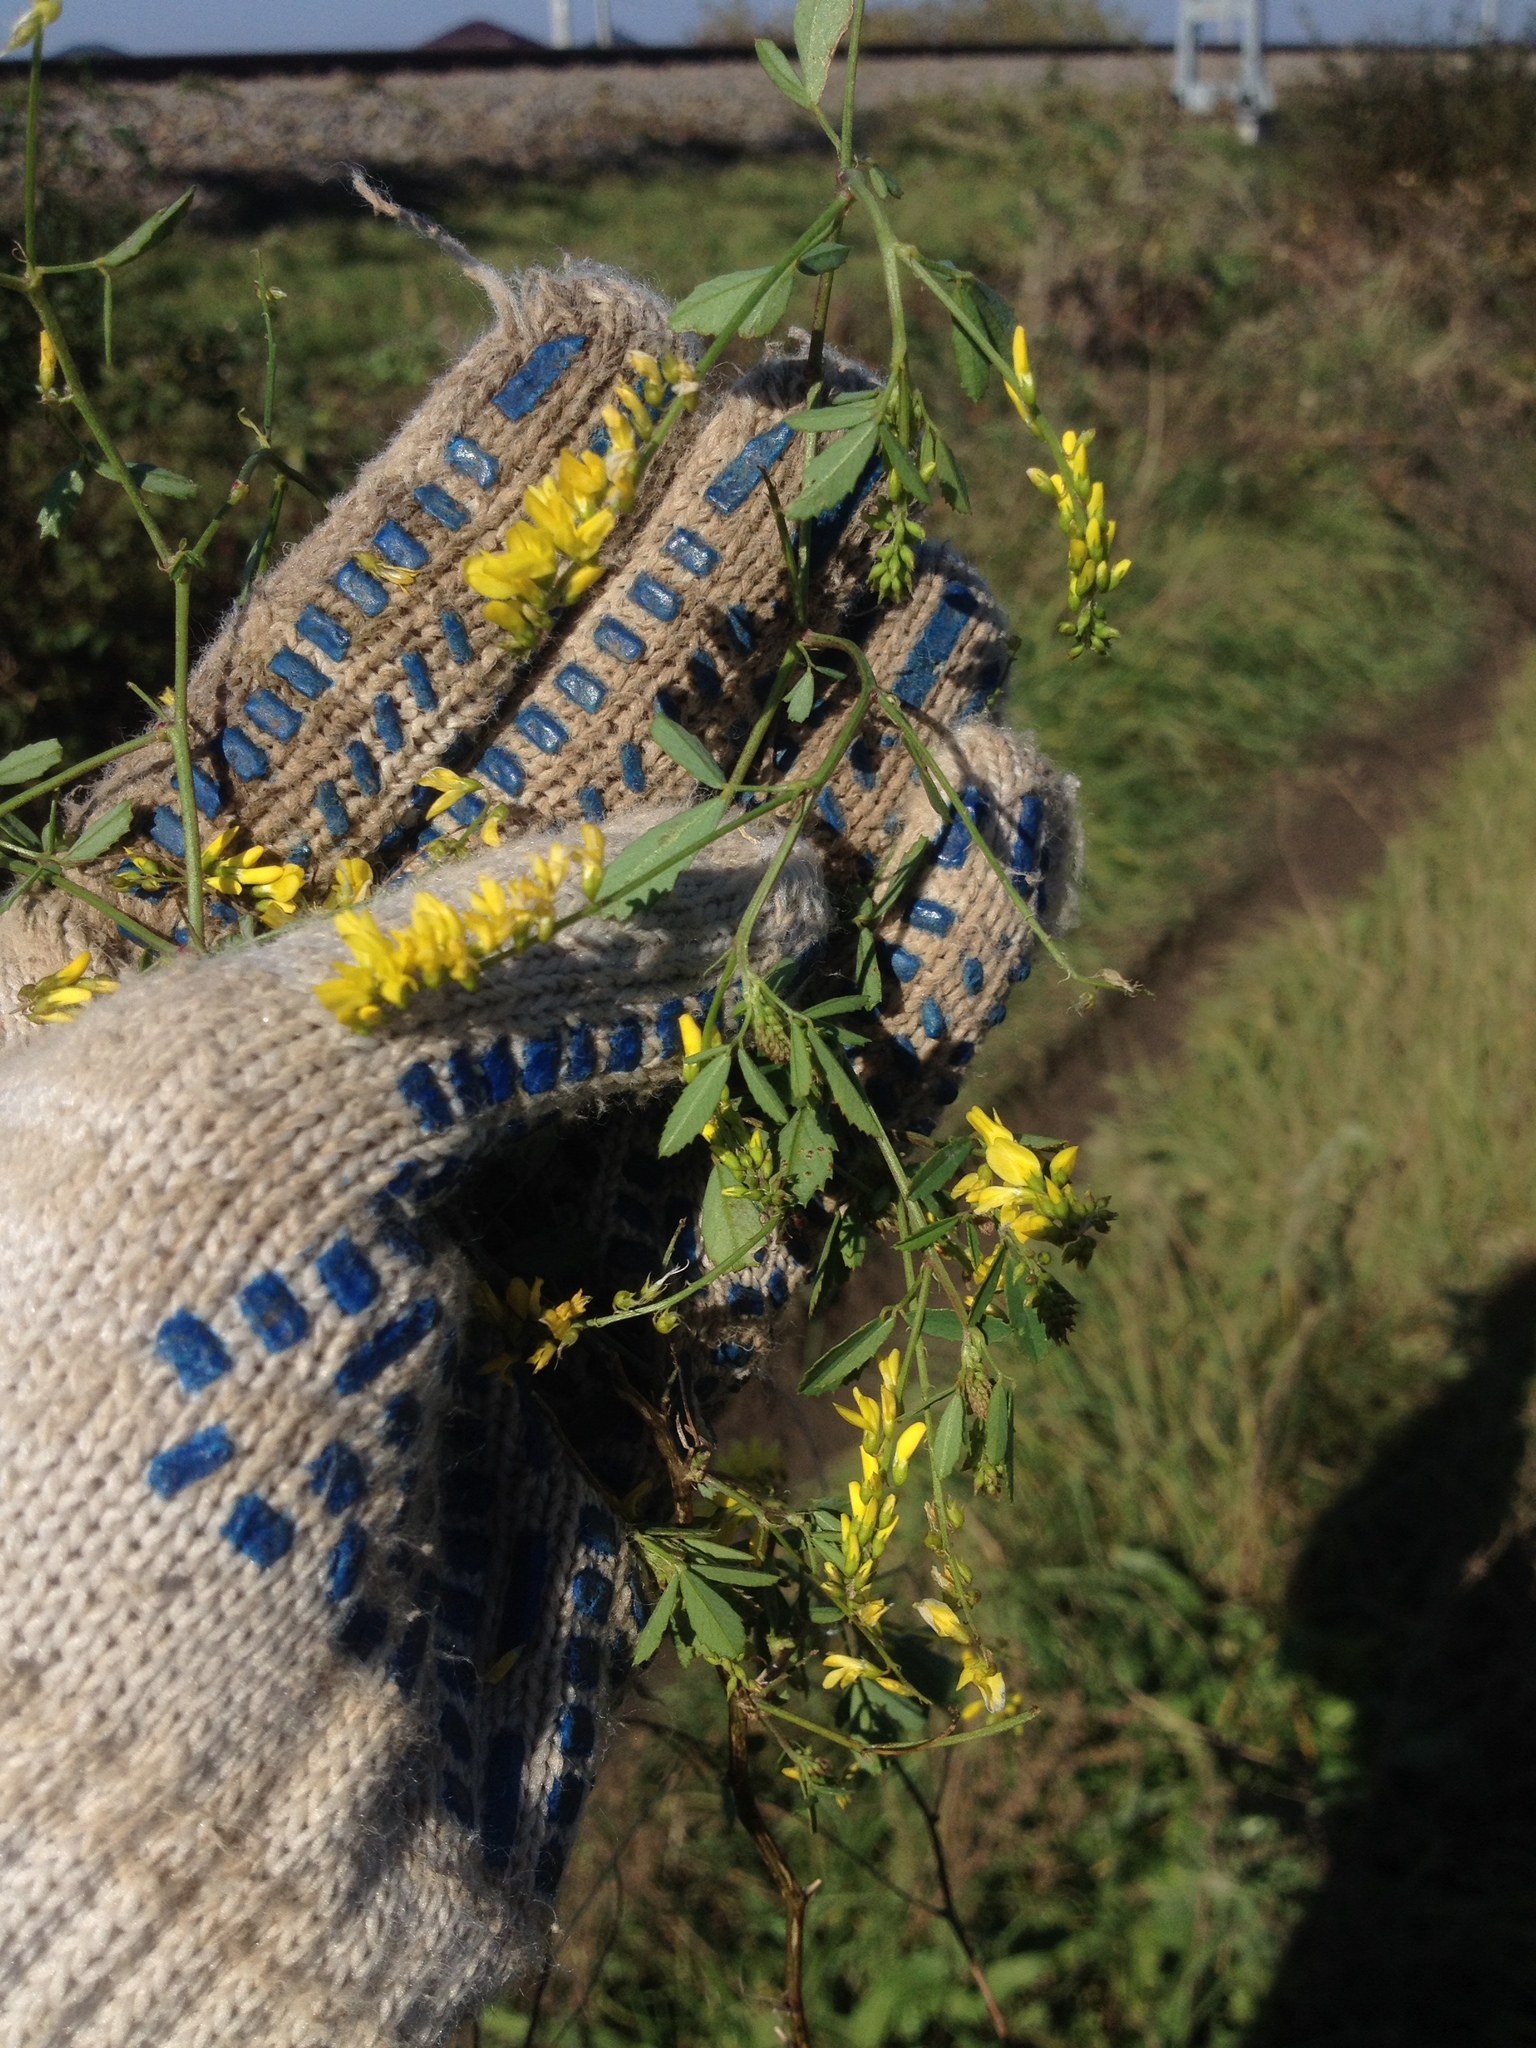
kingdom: Plantae
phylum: Tracheophyta
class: Magnoliopsida
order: Fabales
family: Fabaceae
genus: Melilotus
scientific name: Melilotus officinalis
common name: Sweetclover
